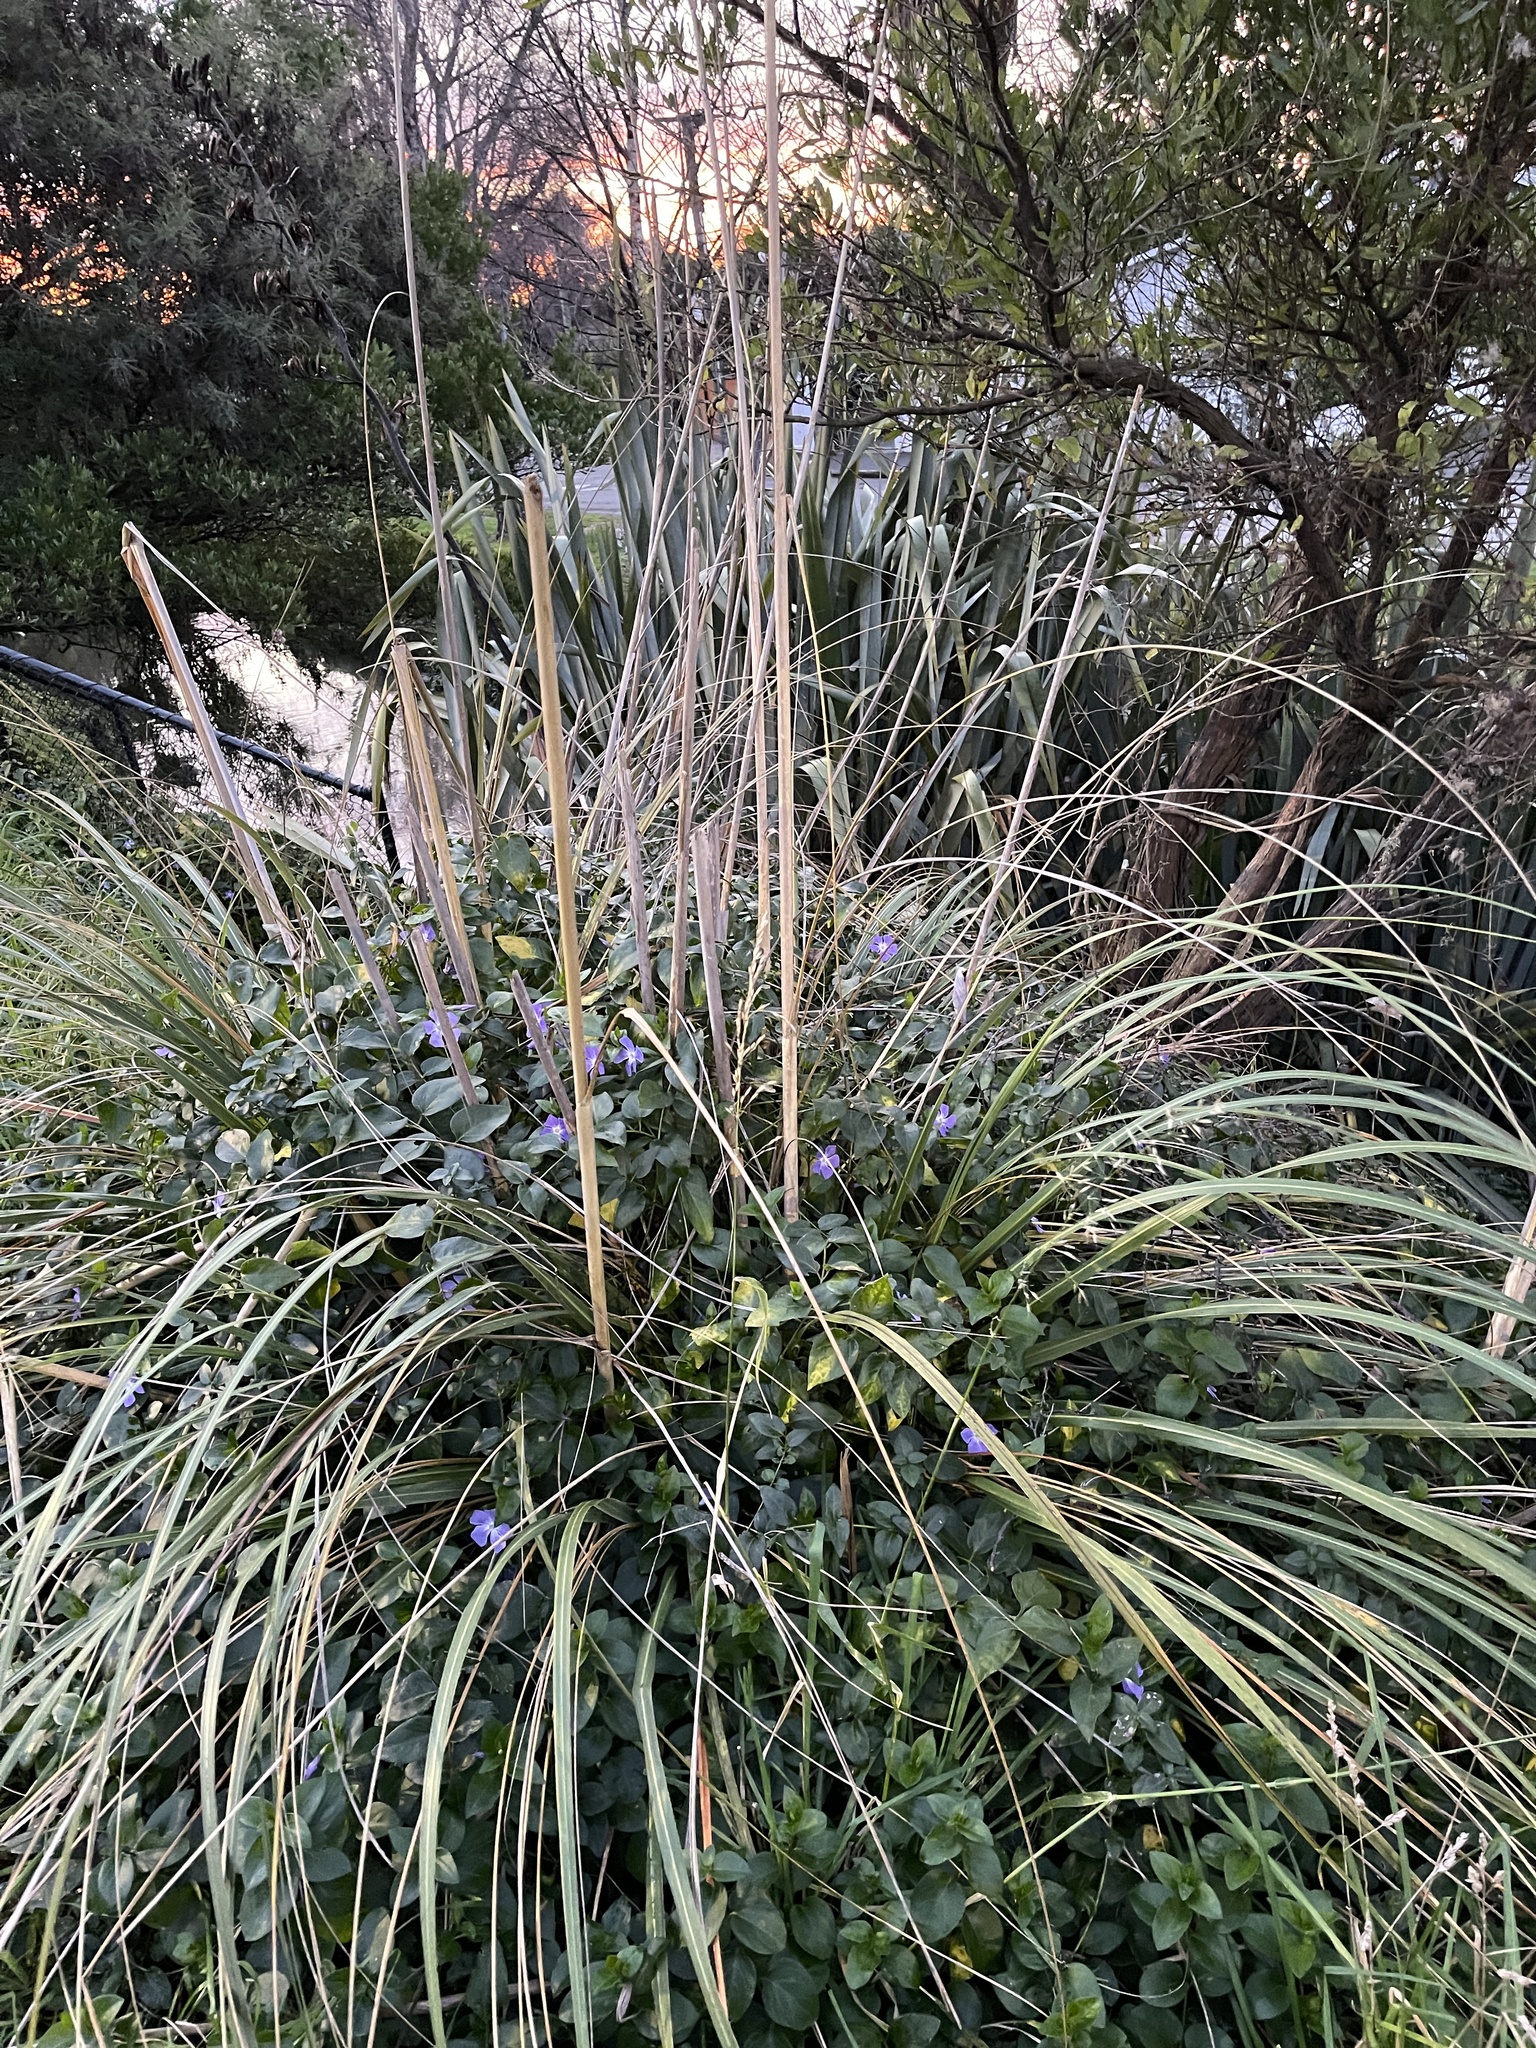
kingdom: Plantae
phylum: Tracheophyta
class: Liliopsida
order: Poales
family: Poaceae
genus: Austroderia
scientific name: Austroderia richardii
